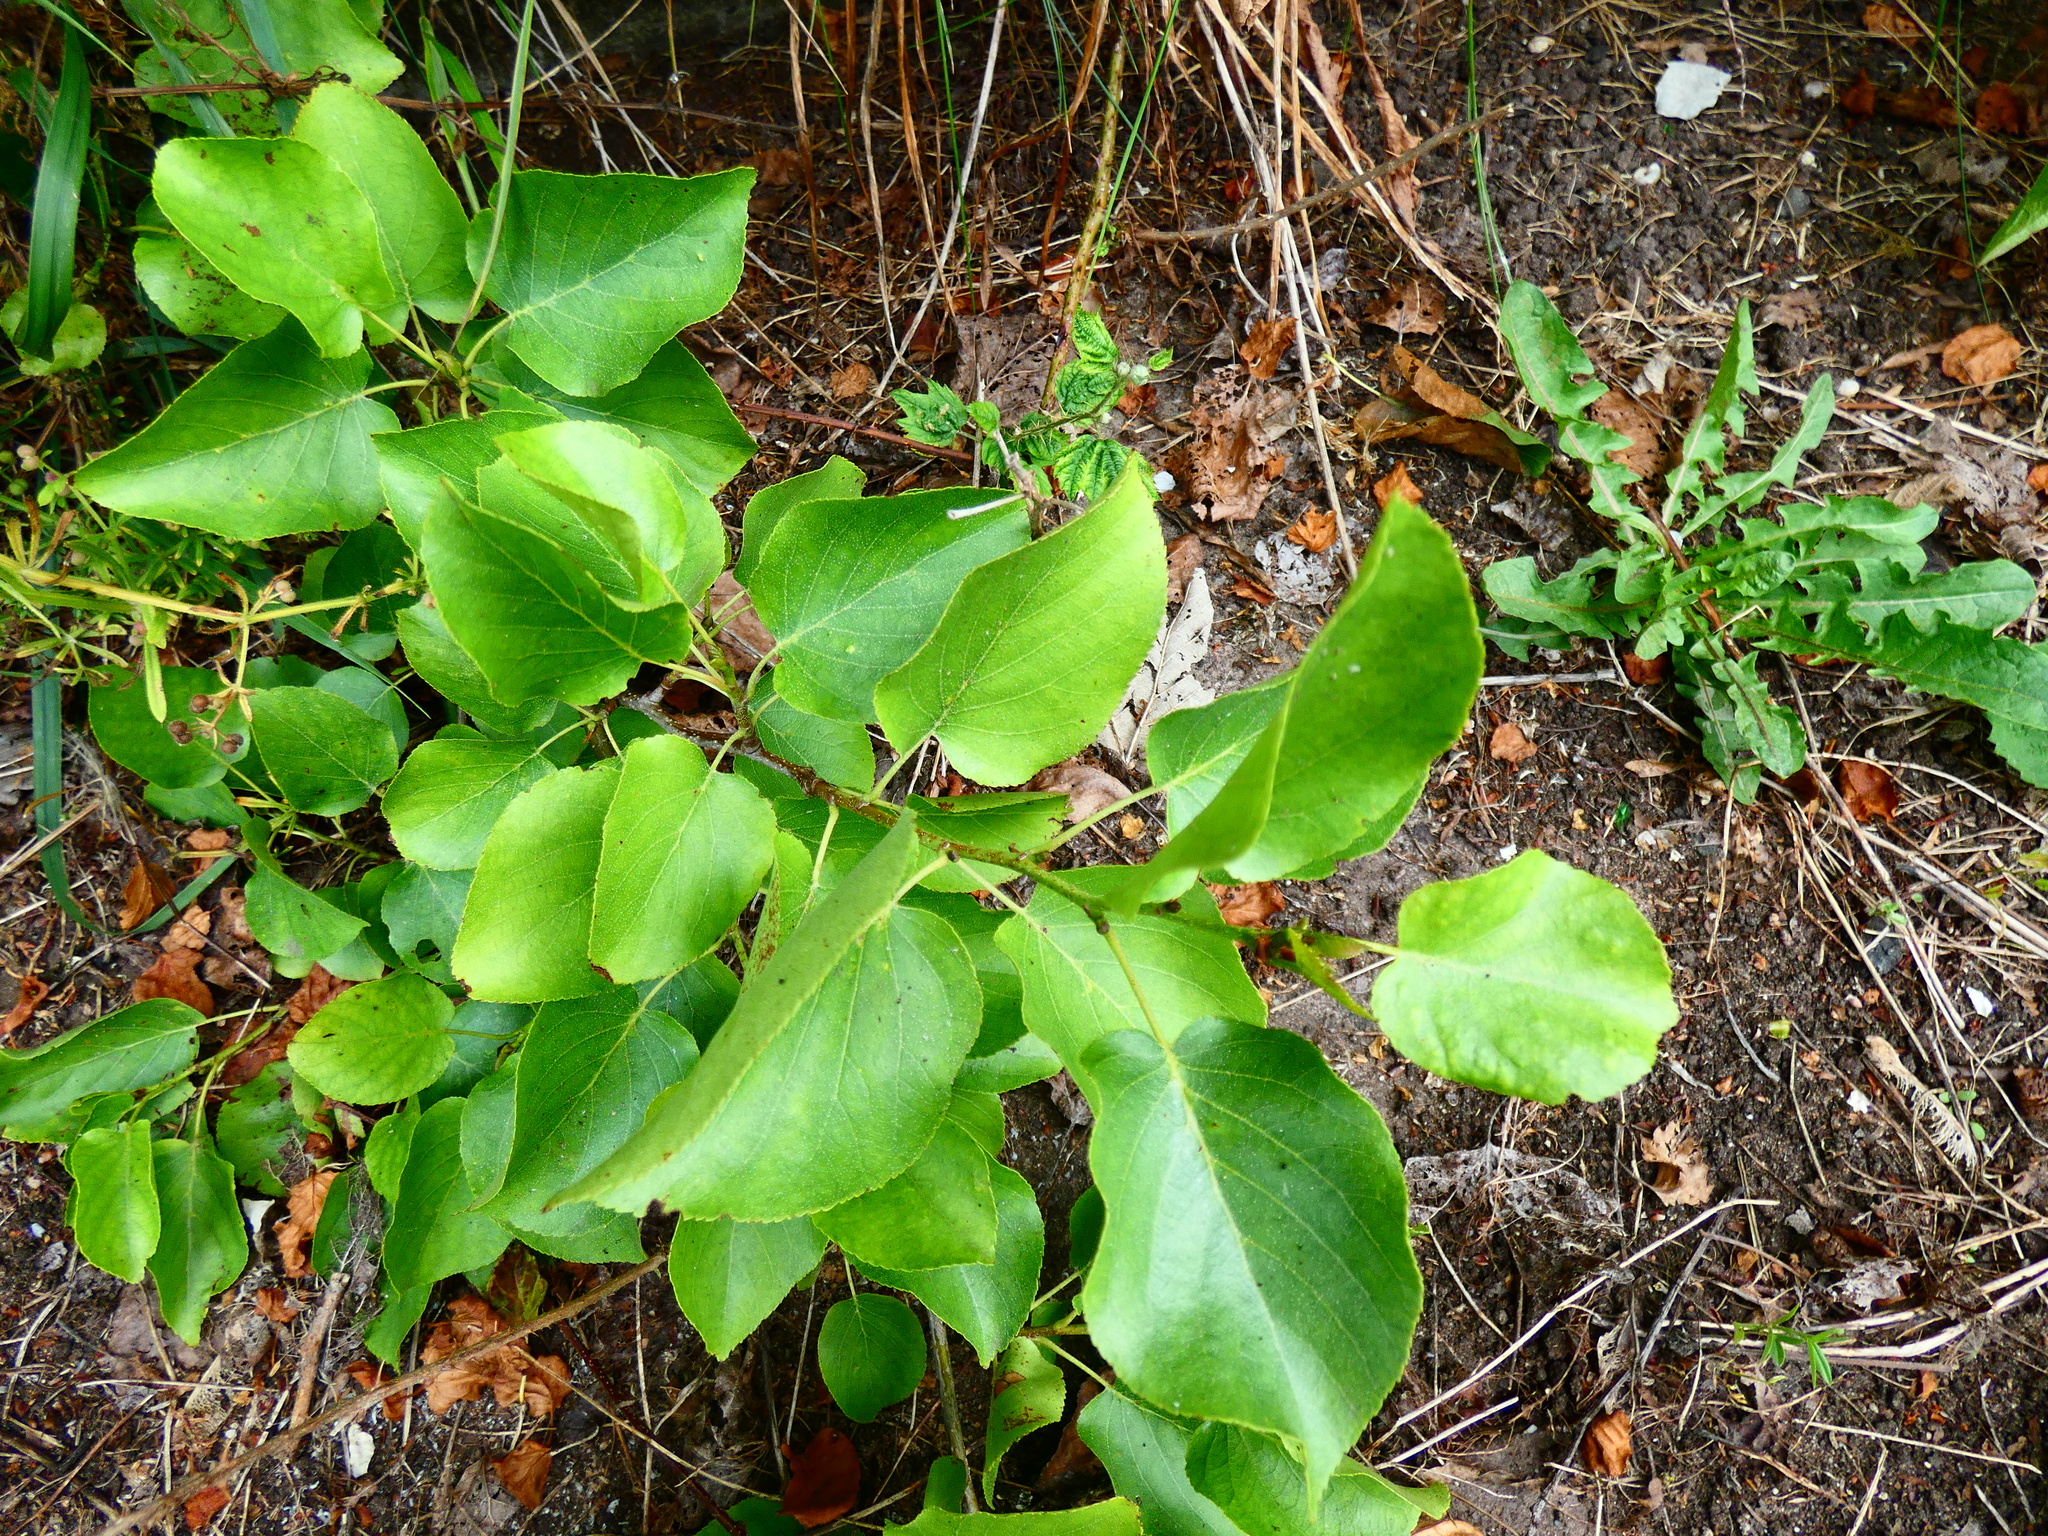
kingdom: Plantae
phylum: Tracheophyta
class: Magnoliopsida
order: Fagales
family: Betulaceae
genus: Alnus
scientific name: Alnus cordata
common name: Italian alder
